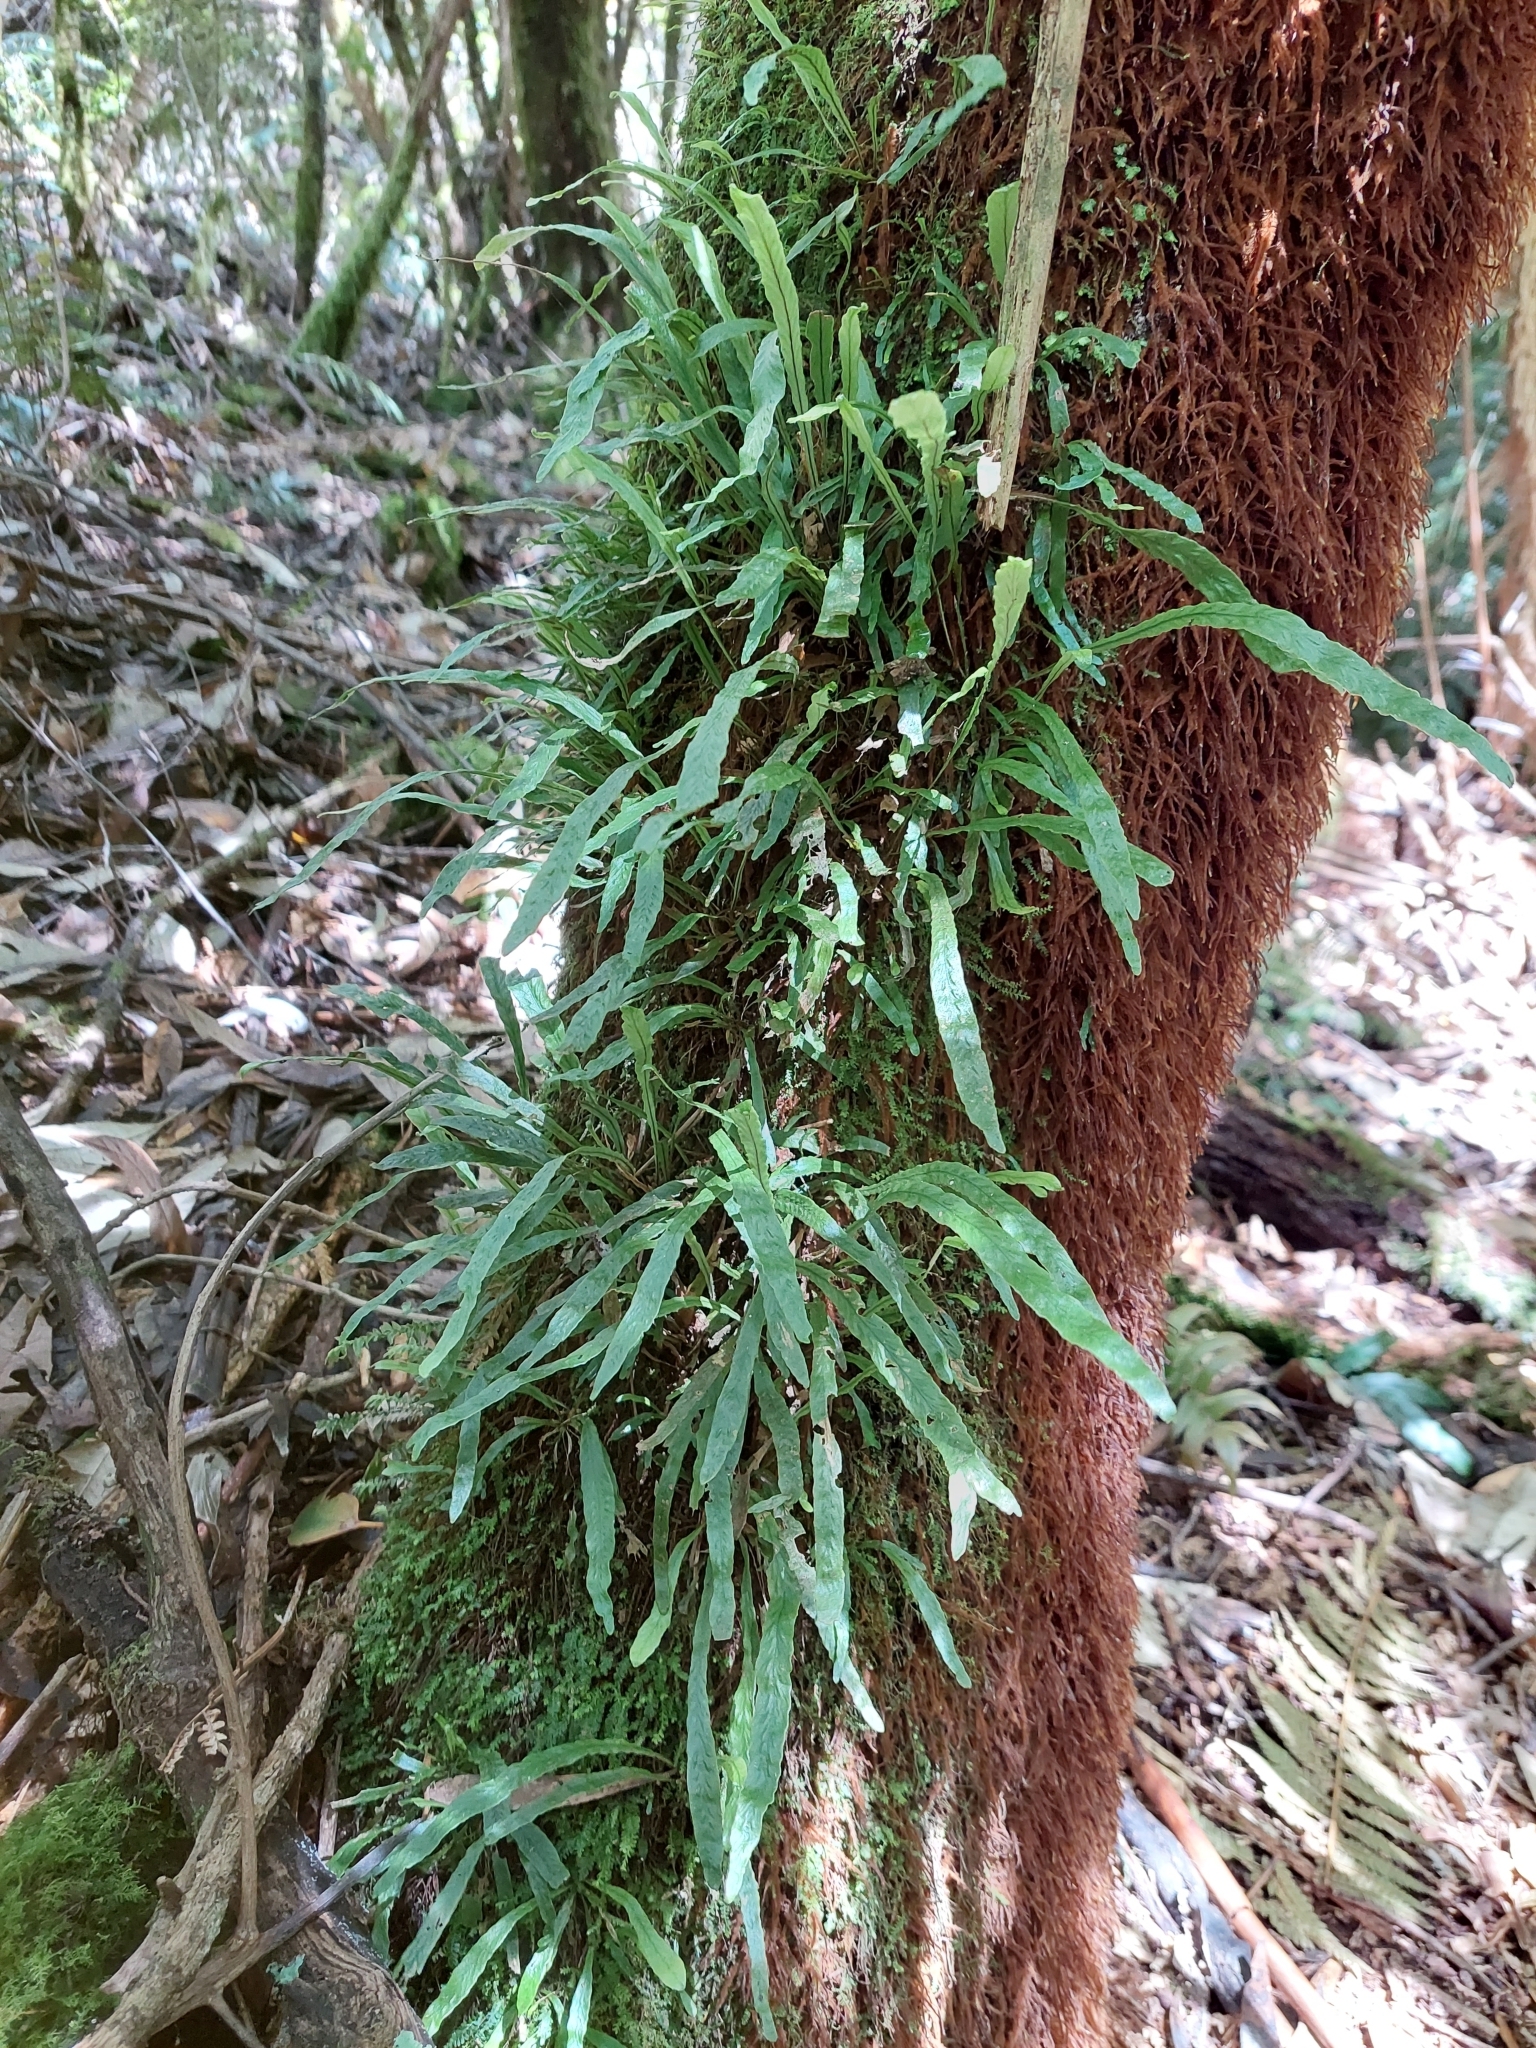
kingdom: Plantae
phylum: Tracheophyta
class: Polypodiopsida
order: Polypodiales
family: Polypodiaceae
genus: Notogrammitis
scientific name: Notogrammitis billardierei
